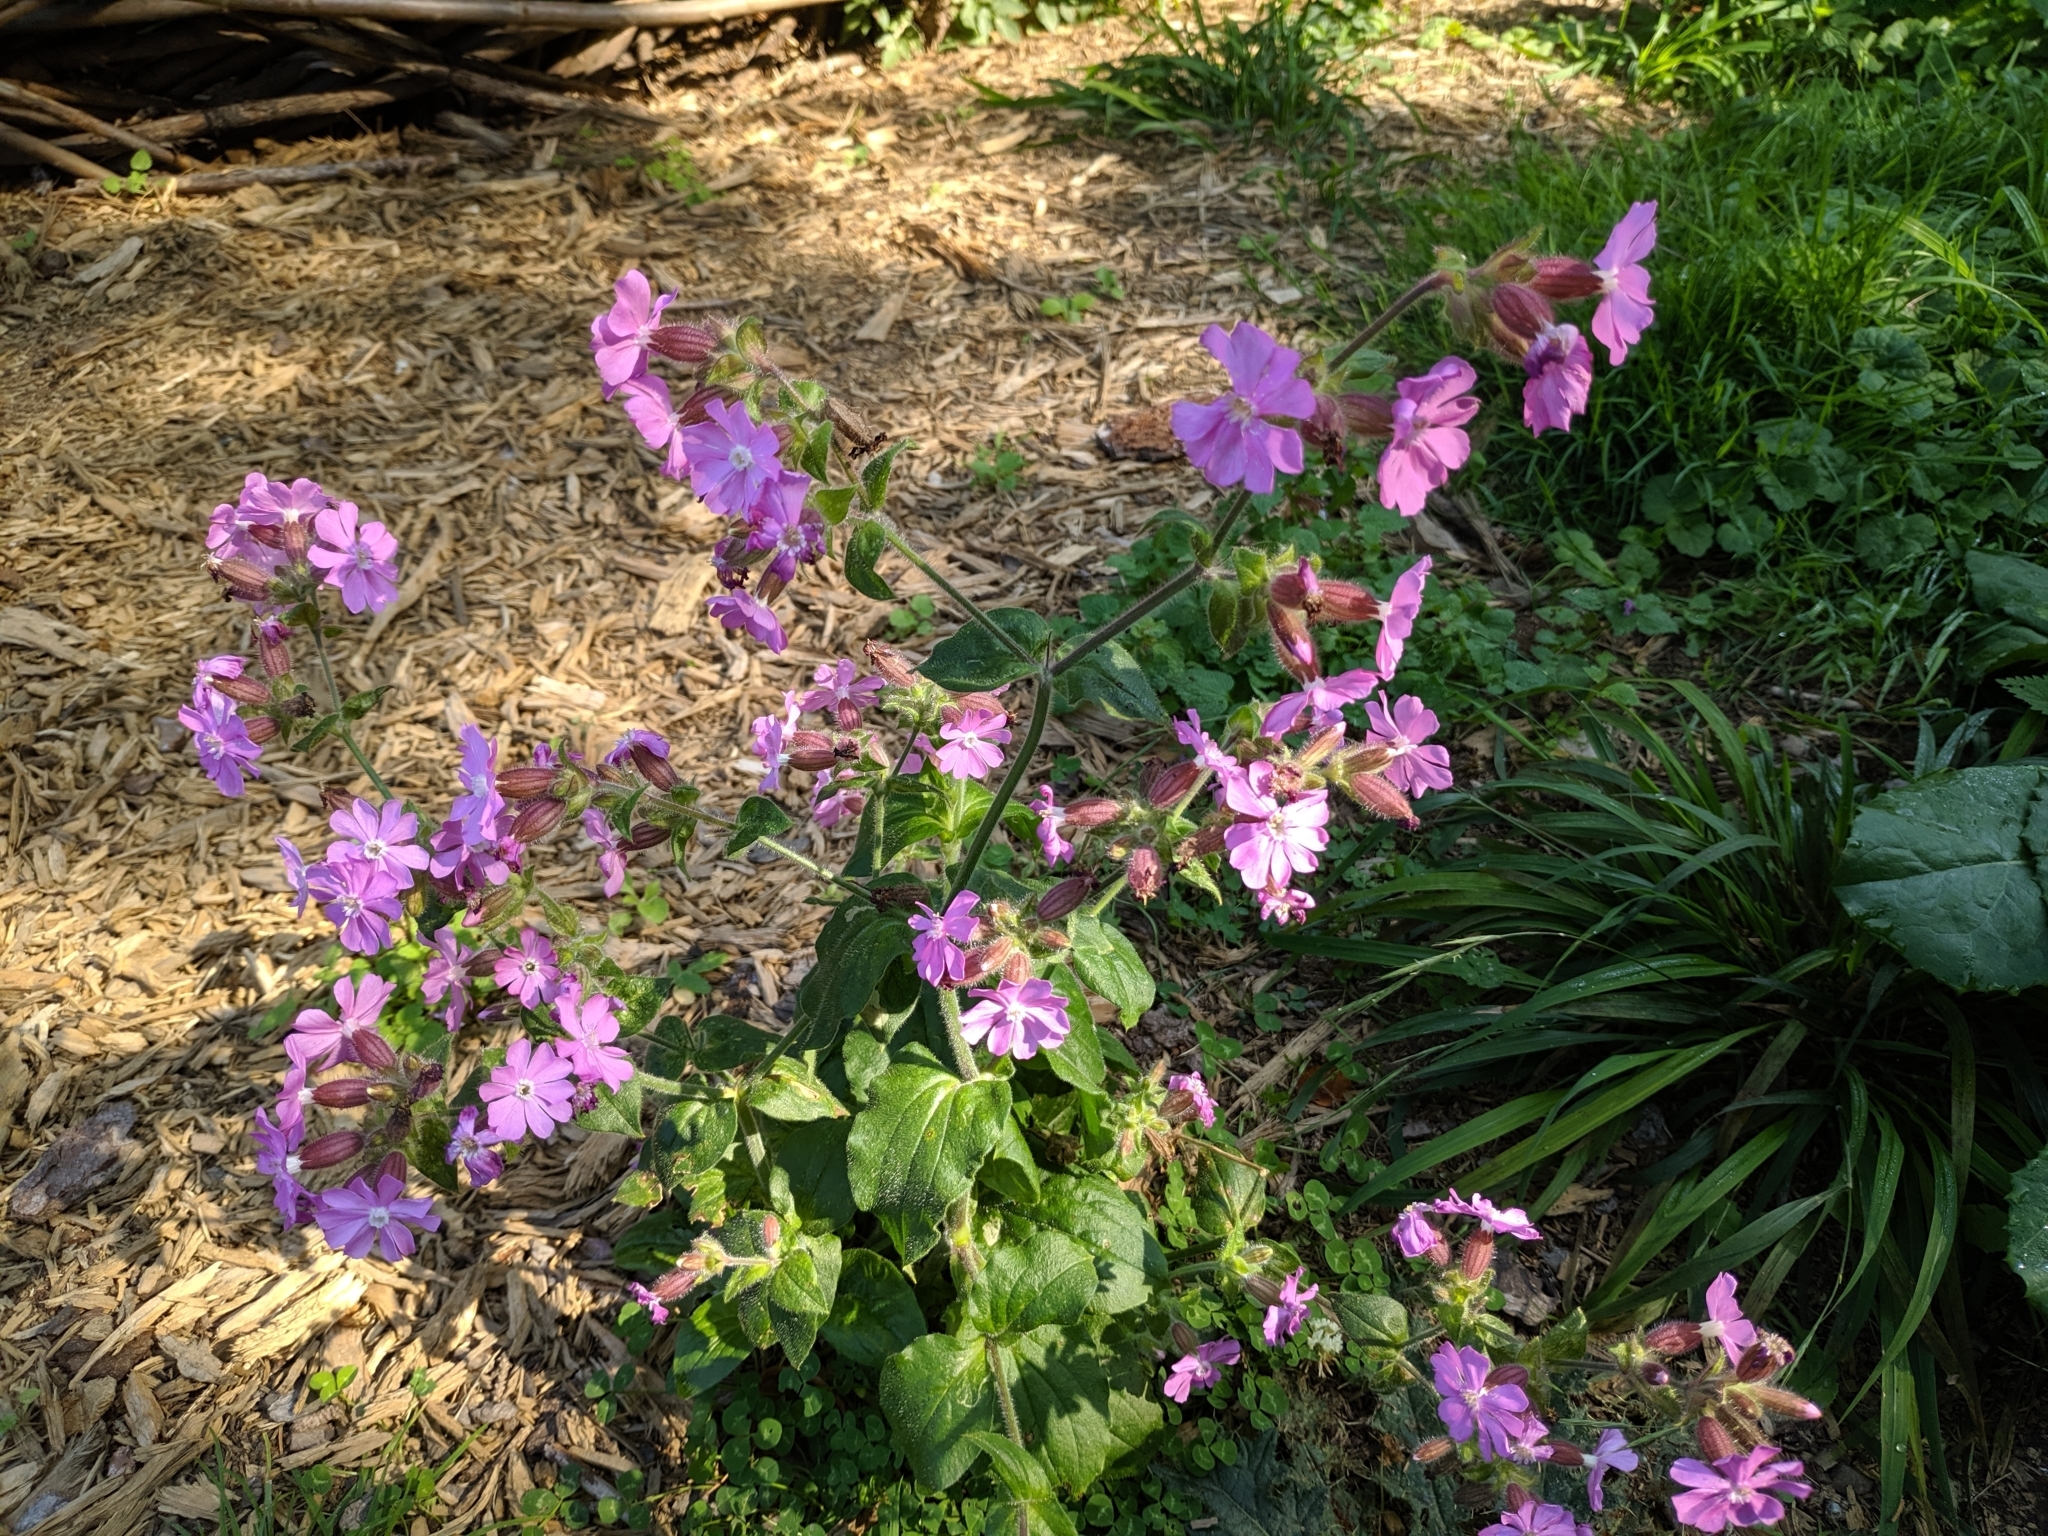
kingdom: Plantae
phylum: Tracheophyta
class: Magnoliopsida
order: Caryophyllales
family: Caryophyllaceae
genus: Silene
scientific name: Silene dioica
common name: Red campion
